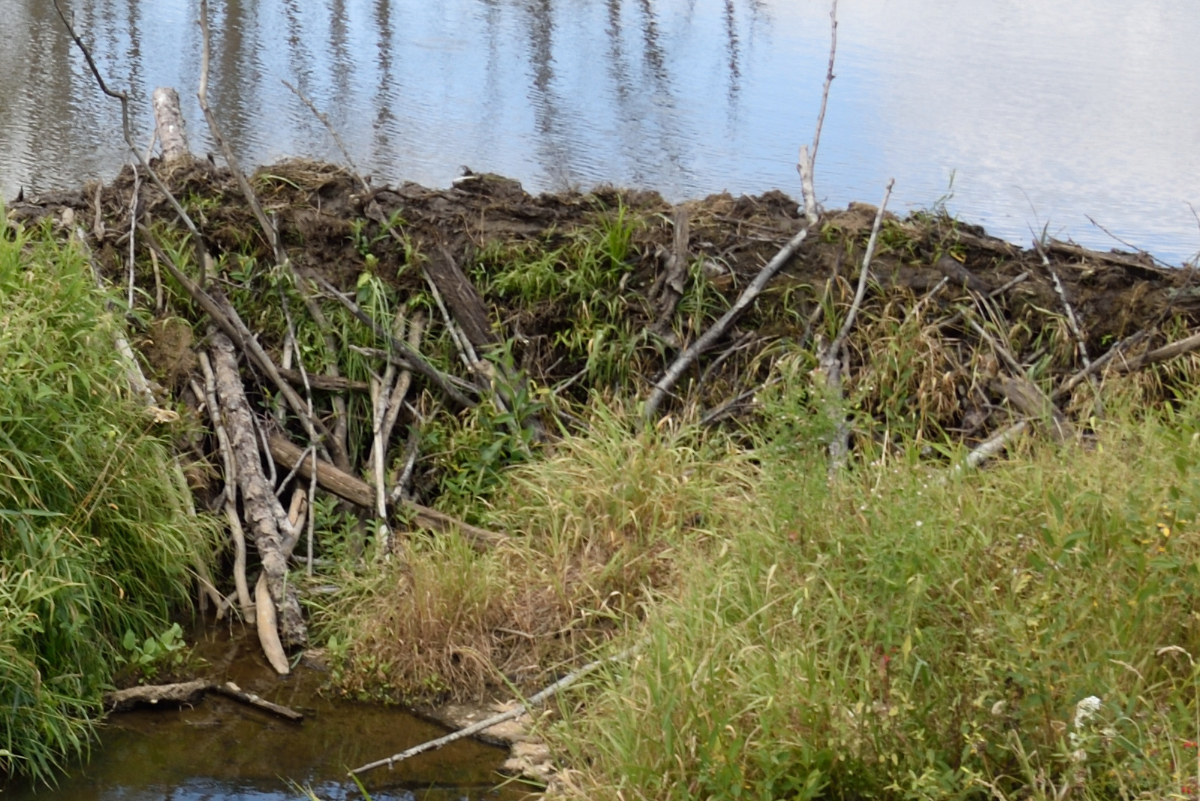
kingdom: Animalia
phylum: Chordata
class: Mammalia
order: Rodentia
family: Castoridae
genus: Castor
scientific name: Castor fiber
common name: Eurasian beaver
